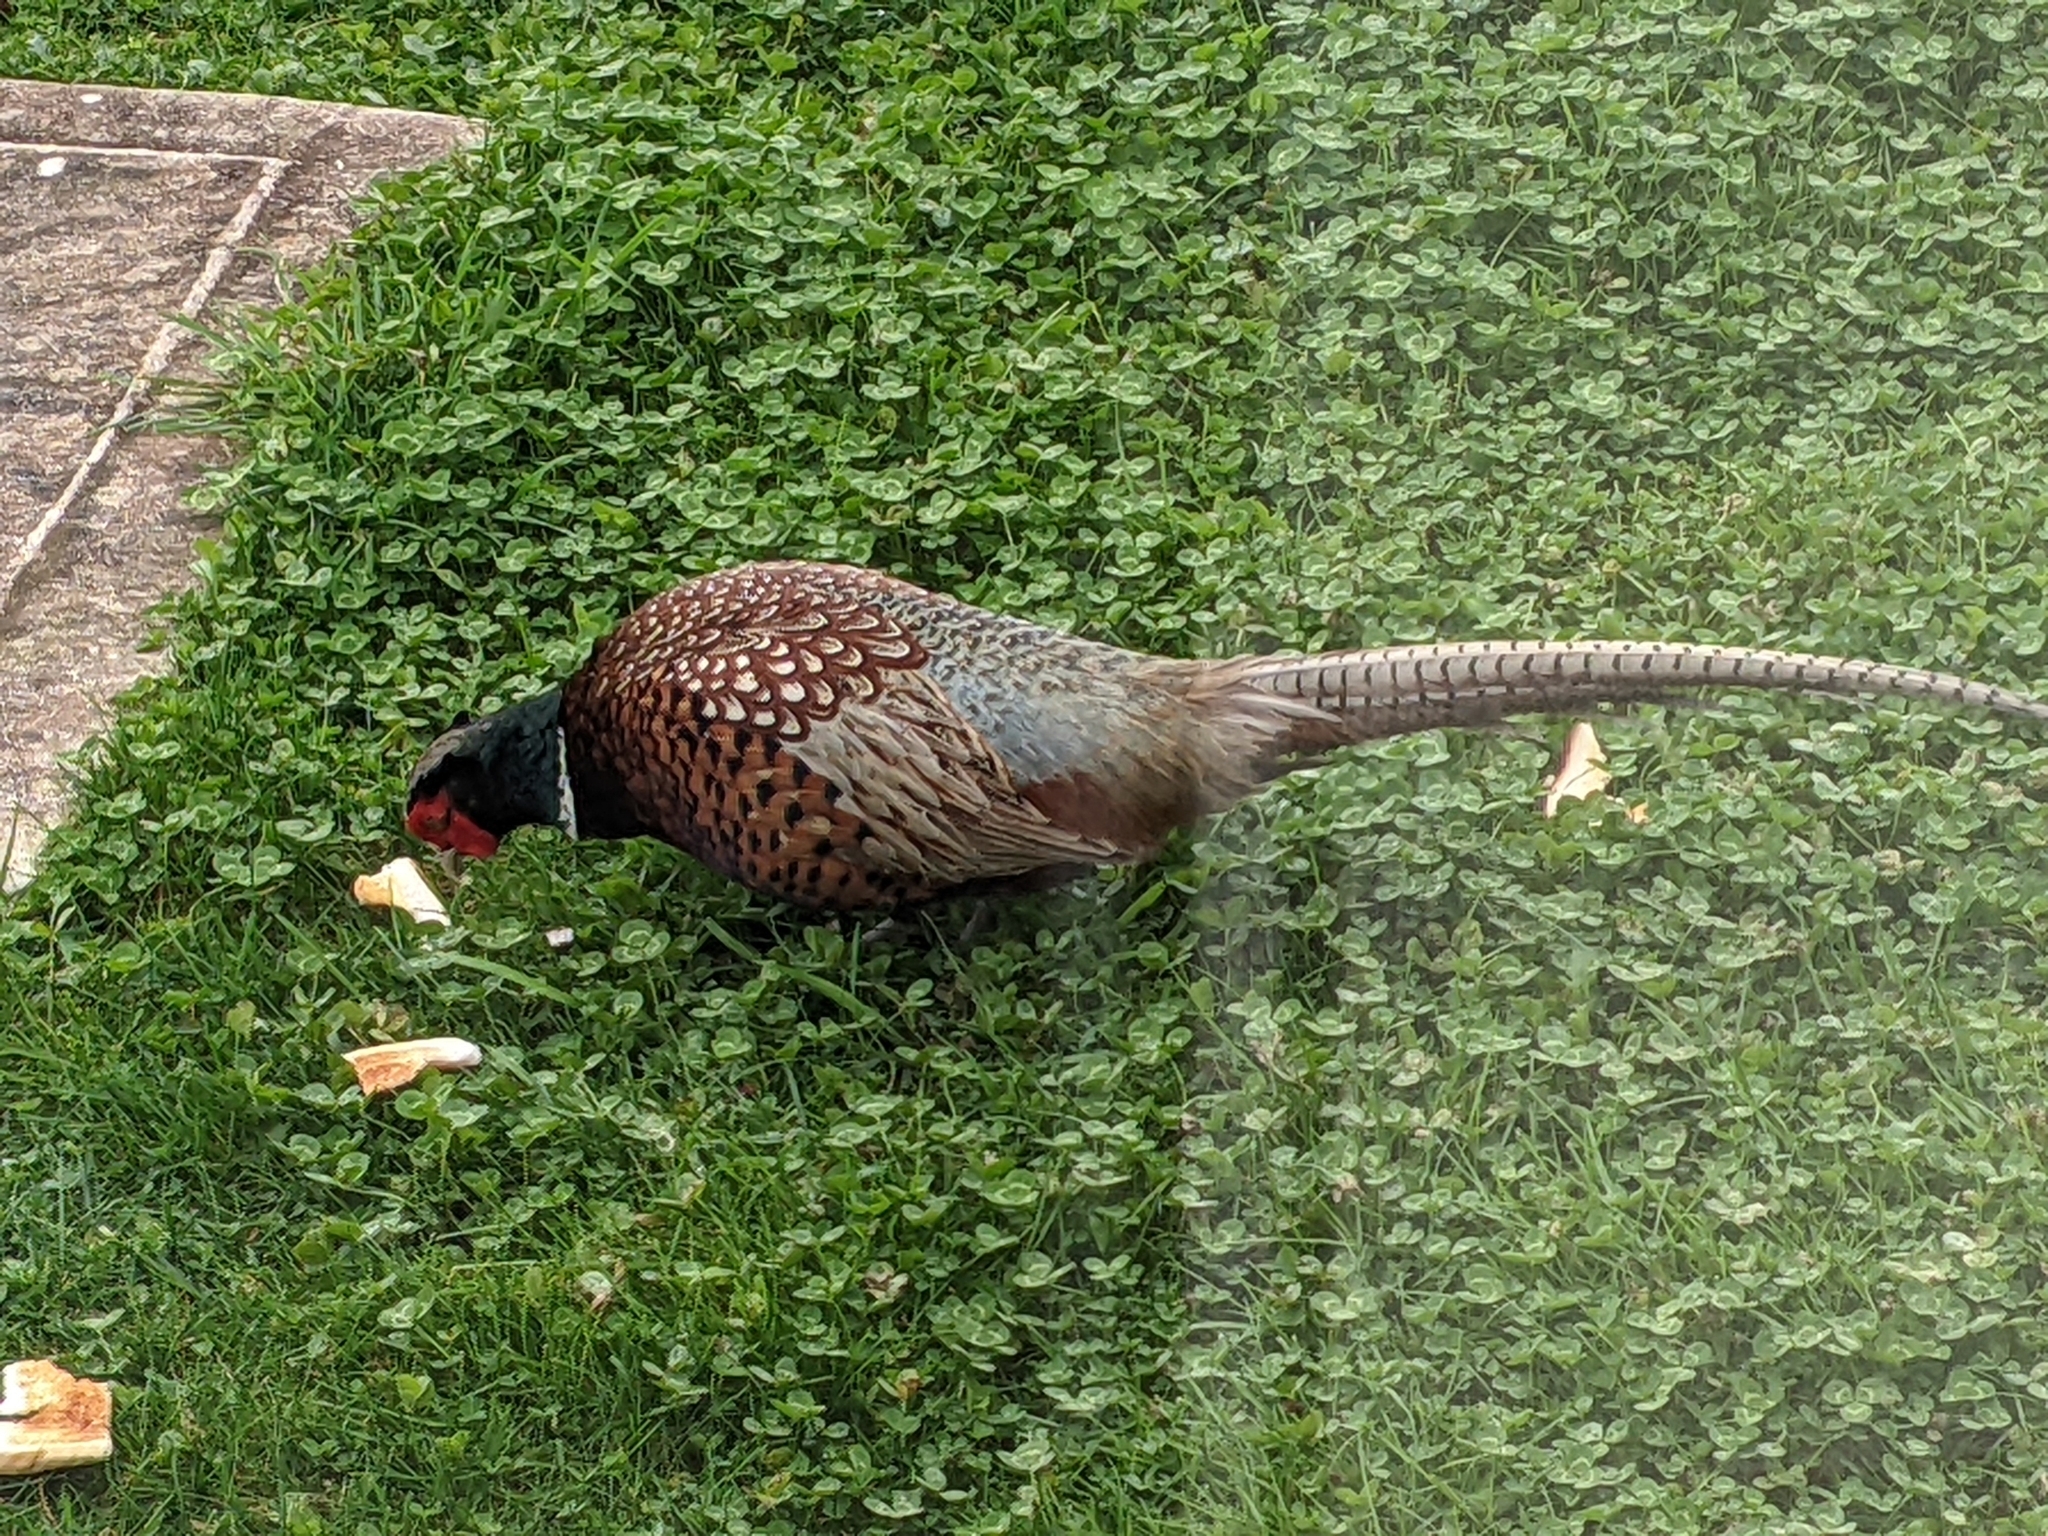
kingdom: Animalia
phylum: Chordata
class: Aves
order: Galliformes
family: Phasianidae
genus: Phasianus
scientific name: Phasianus colchicus
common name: Common pheasant
